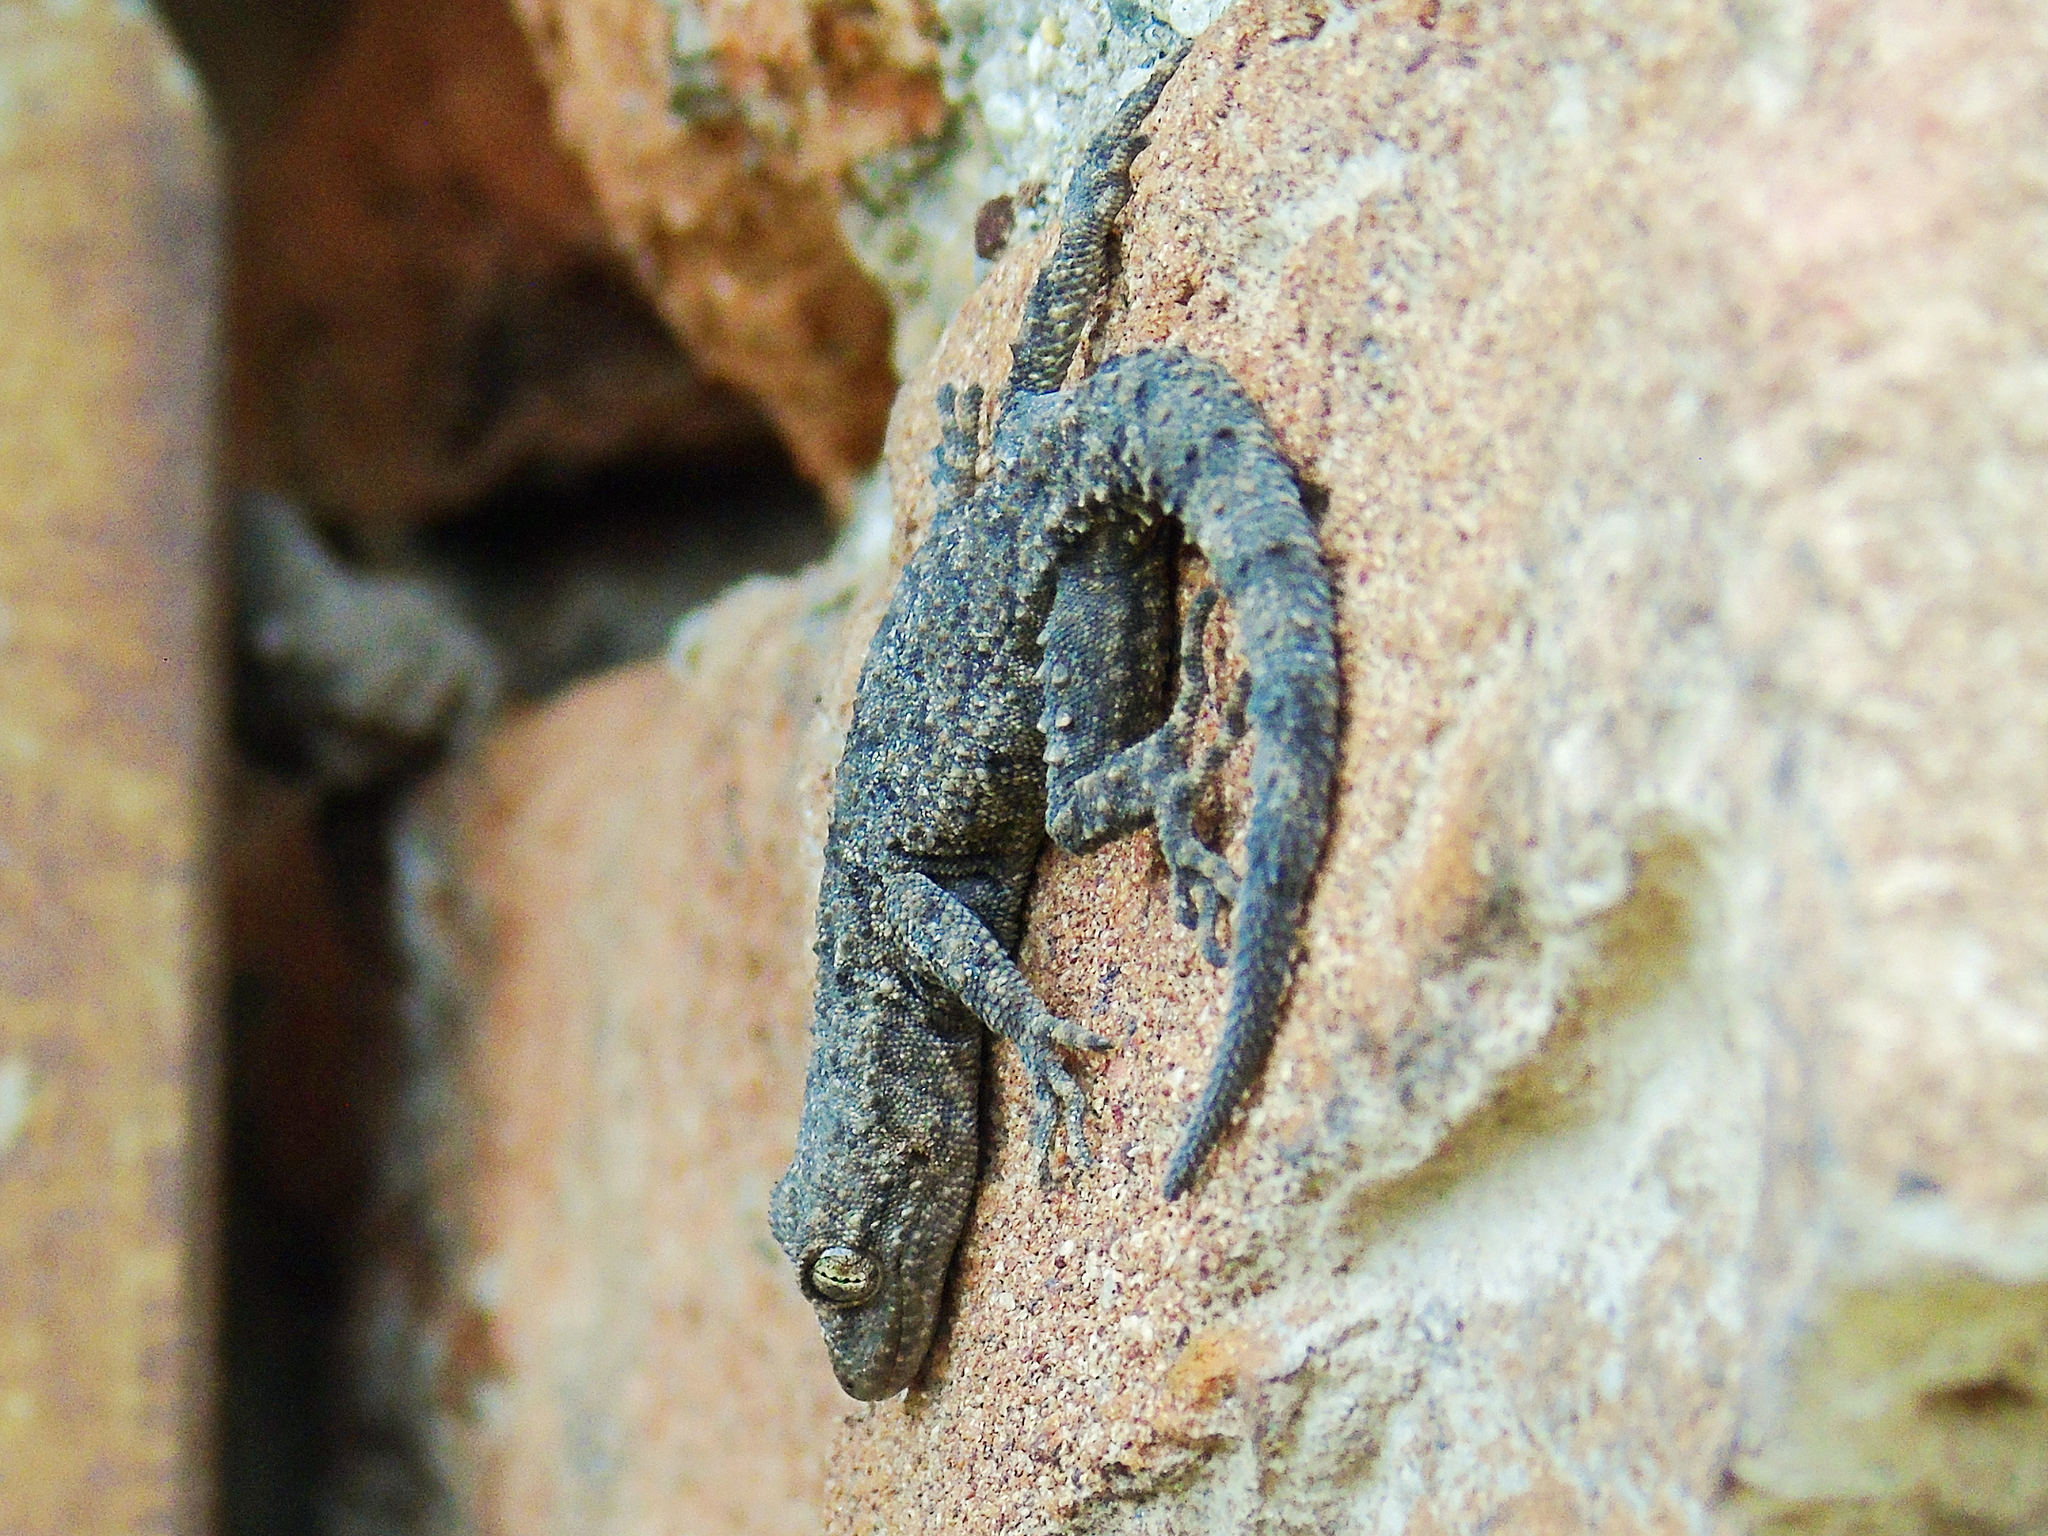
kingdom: Animalia
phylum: Chordata
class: Squamata
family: Gekkonidae
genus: Mediodactylus
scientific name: Mediodactylus kotschyi
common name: Kotschy's gecko
